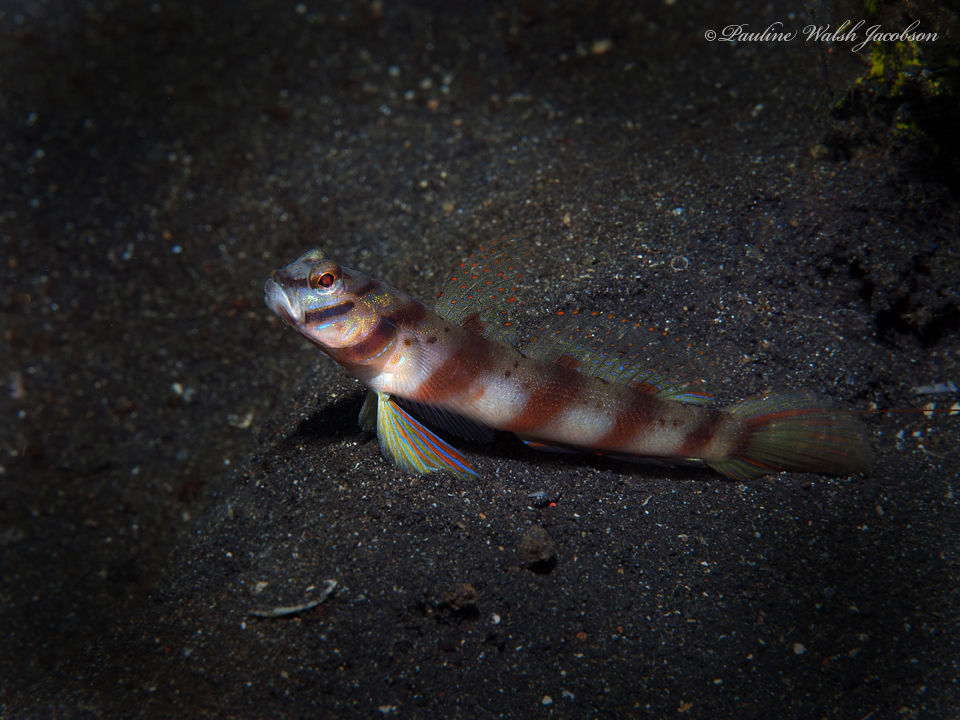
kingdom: Animalia
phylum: Chordata
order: Perciformes
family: Gobiidae
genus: Amblyeleotris
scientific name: Amblyeleotris diagonalis
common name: Diagonal shrimp goby
